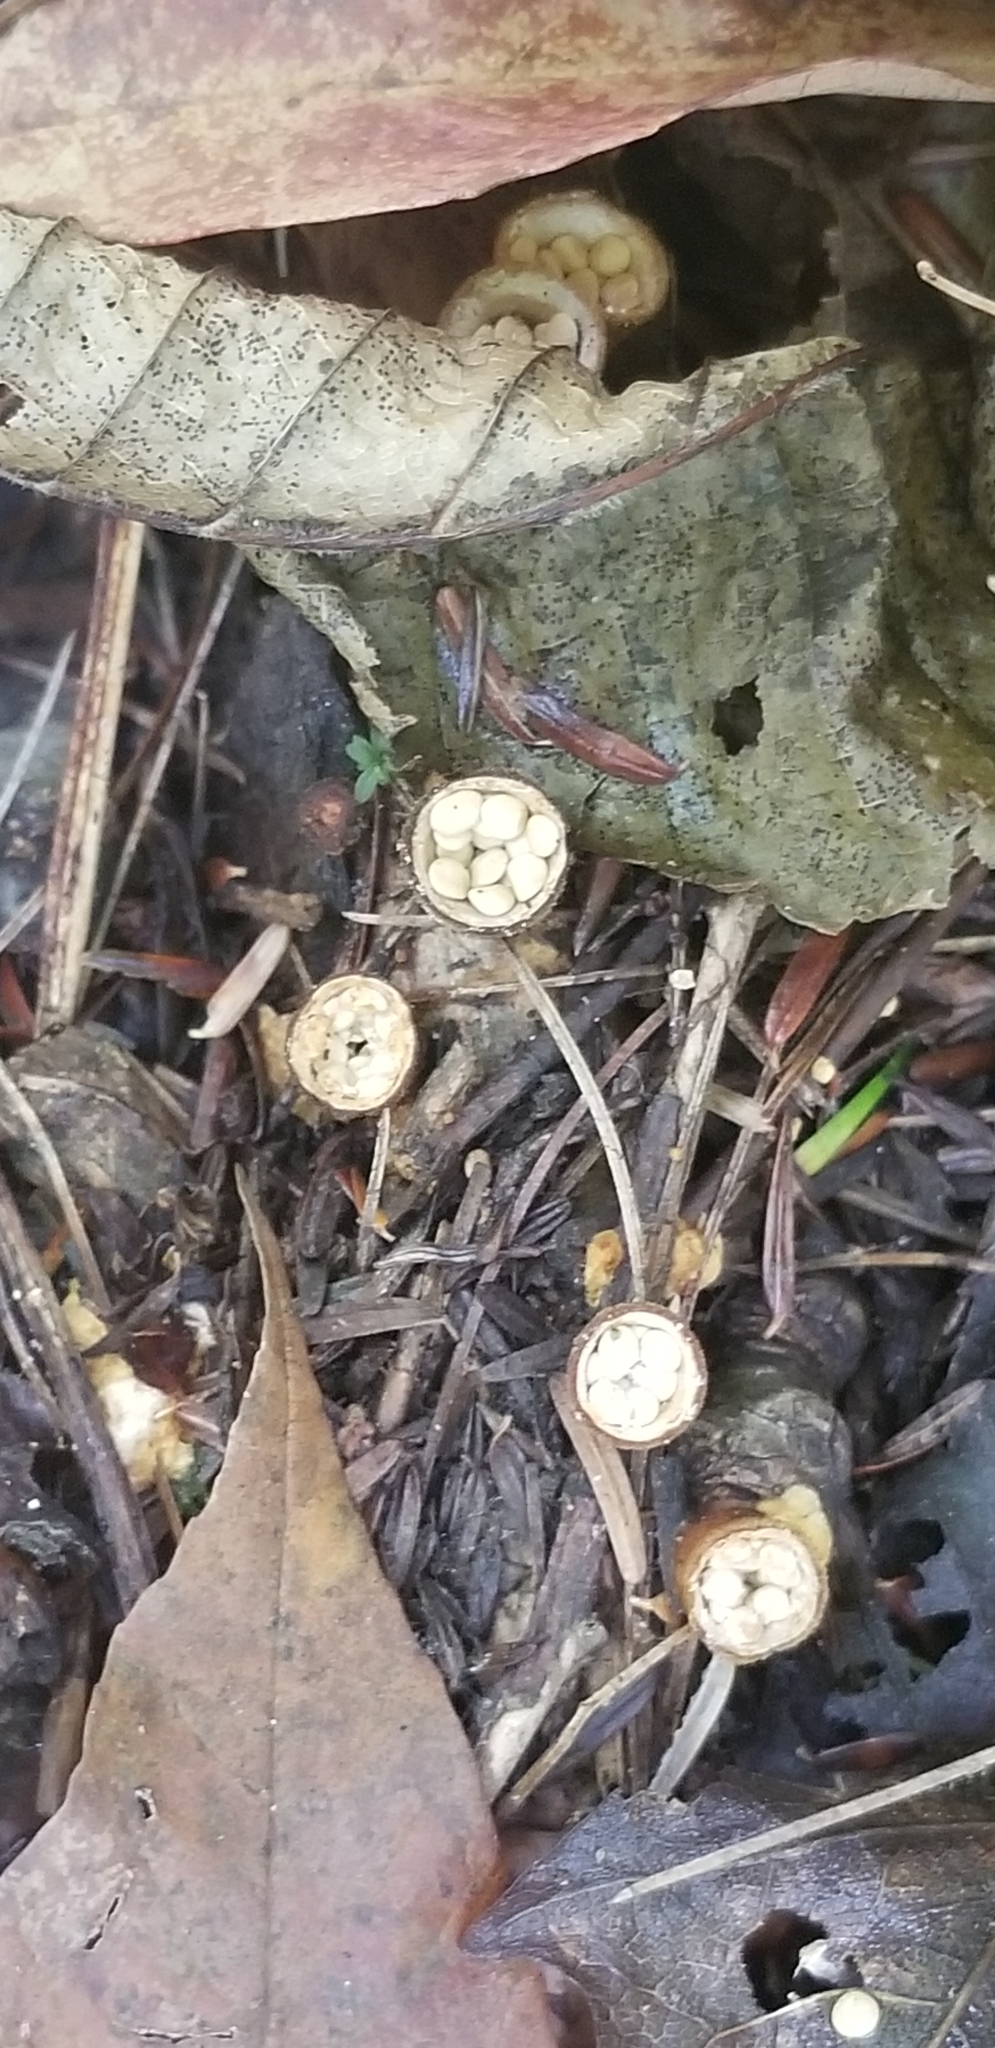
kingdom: Fungi
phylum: Basidiomycota
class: Agaricomycetes
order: Agaricales
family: Nidulariaceae
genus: Crucibulum
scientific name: Crucibulum laeve
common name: Common bird's nest
